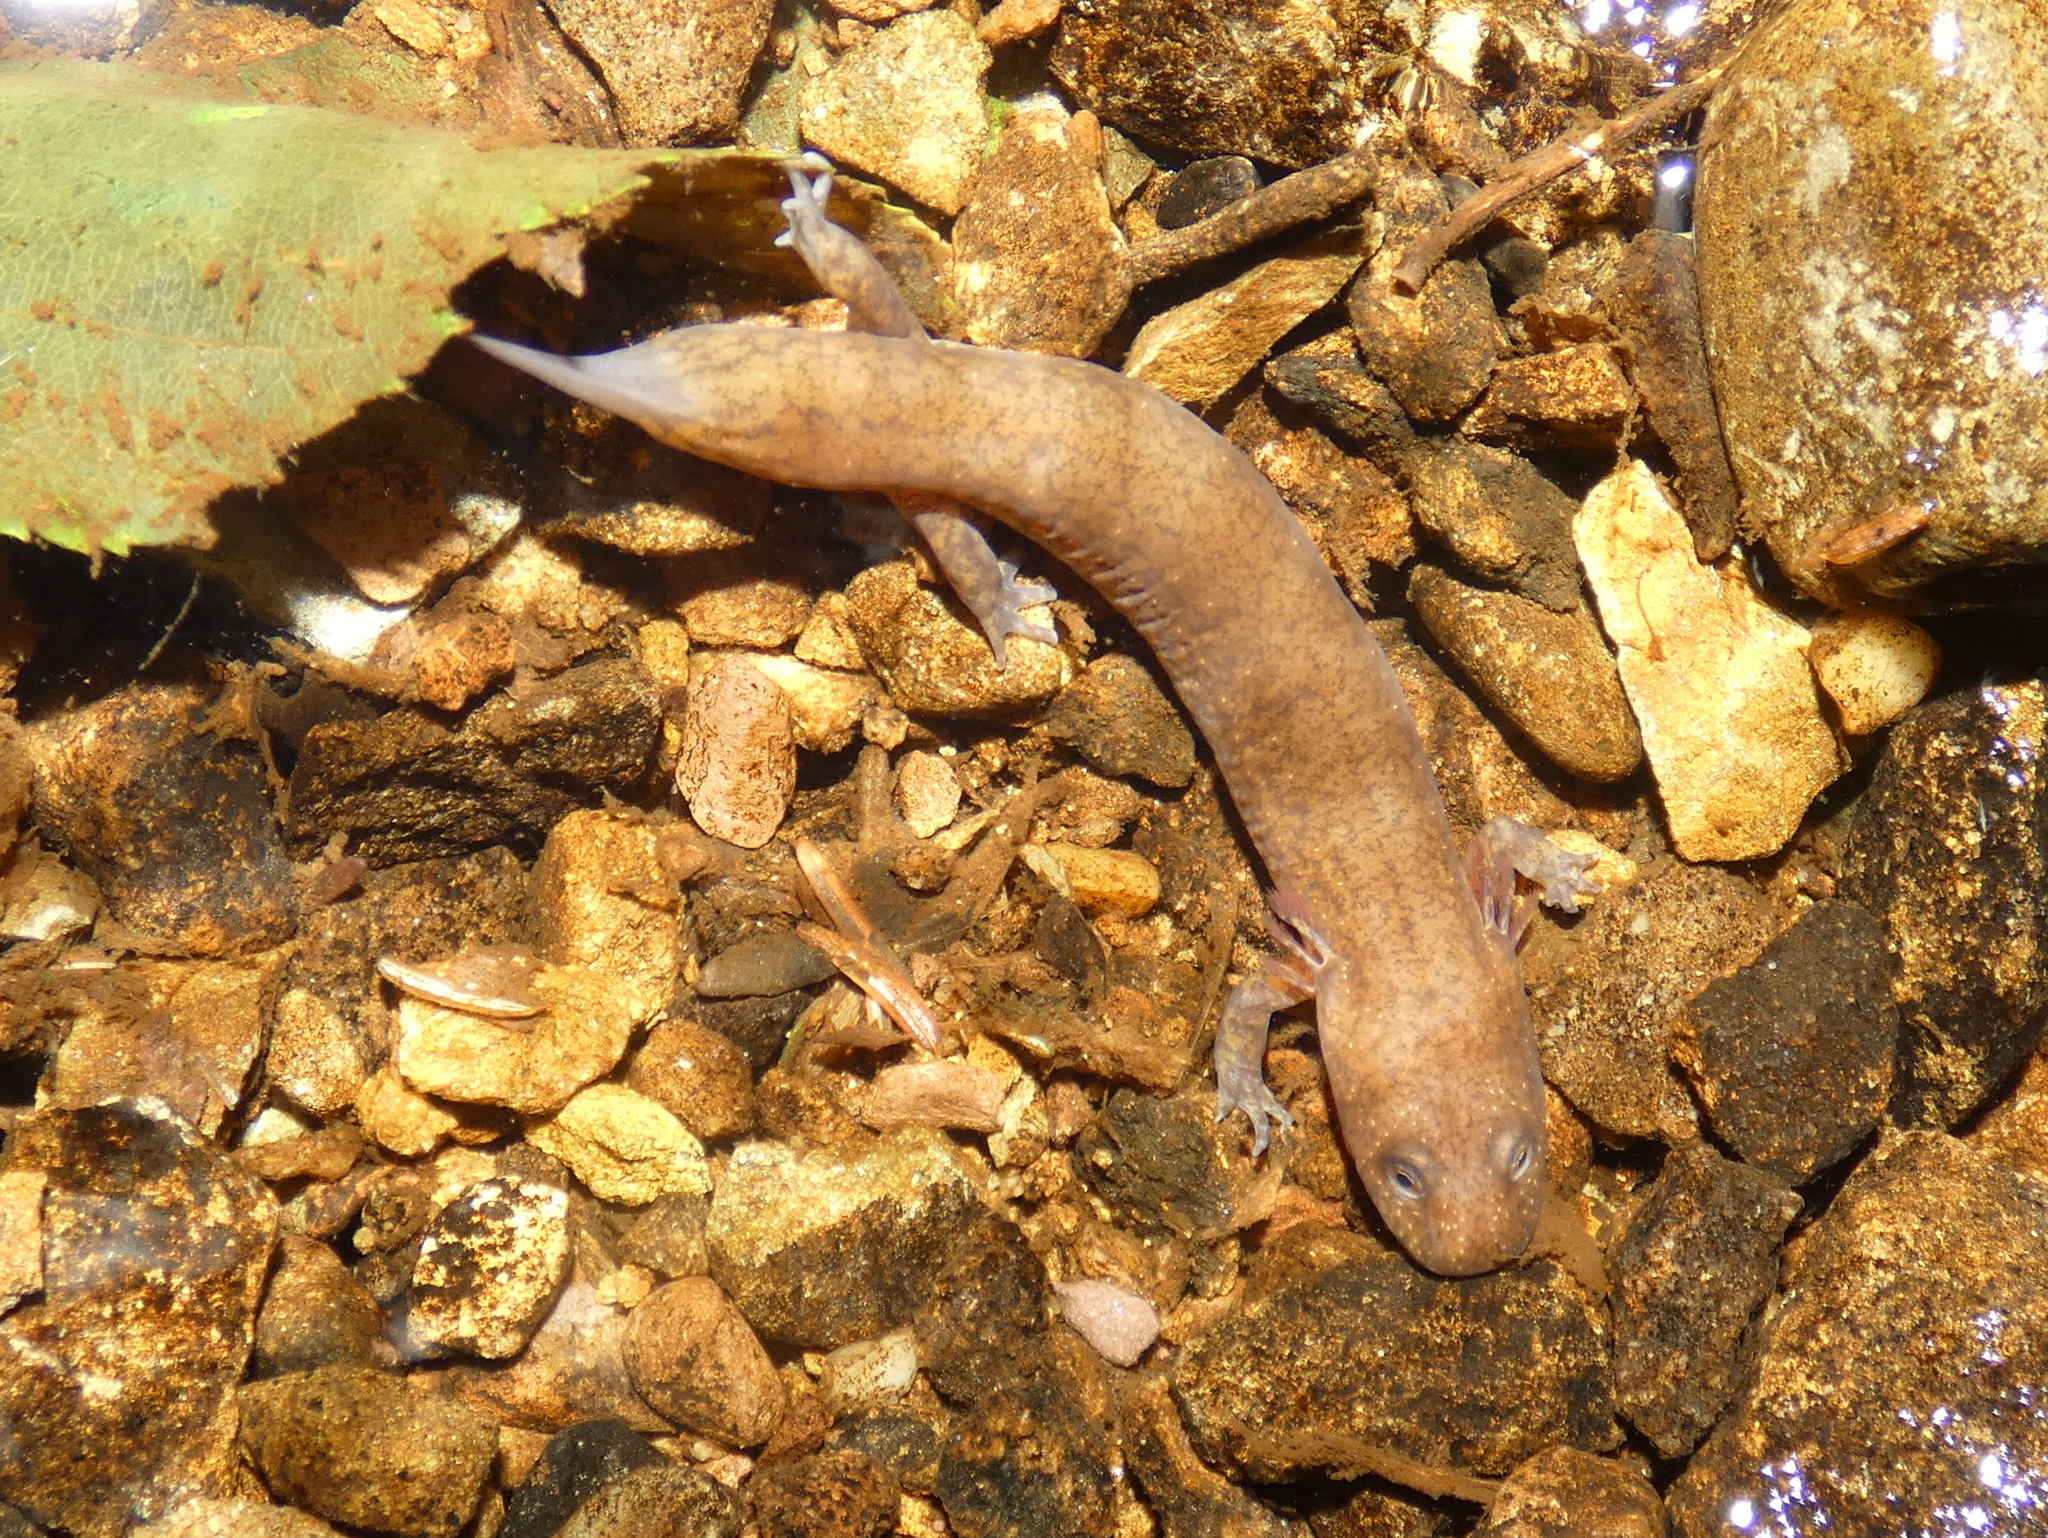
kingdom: Animalia
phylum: Chordata
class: Amphibia
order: Caudata
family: Plethodontidae
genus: Gyrinophilus
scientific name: Gyrinophilus porphyriticus
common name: Spring salamander
